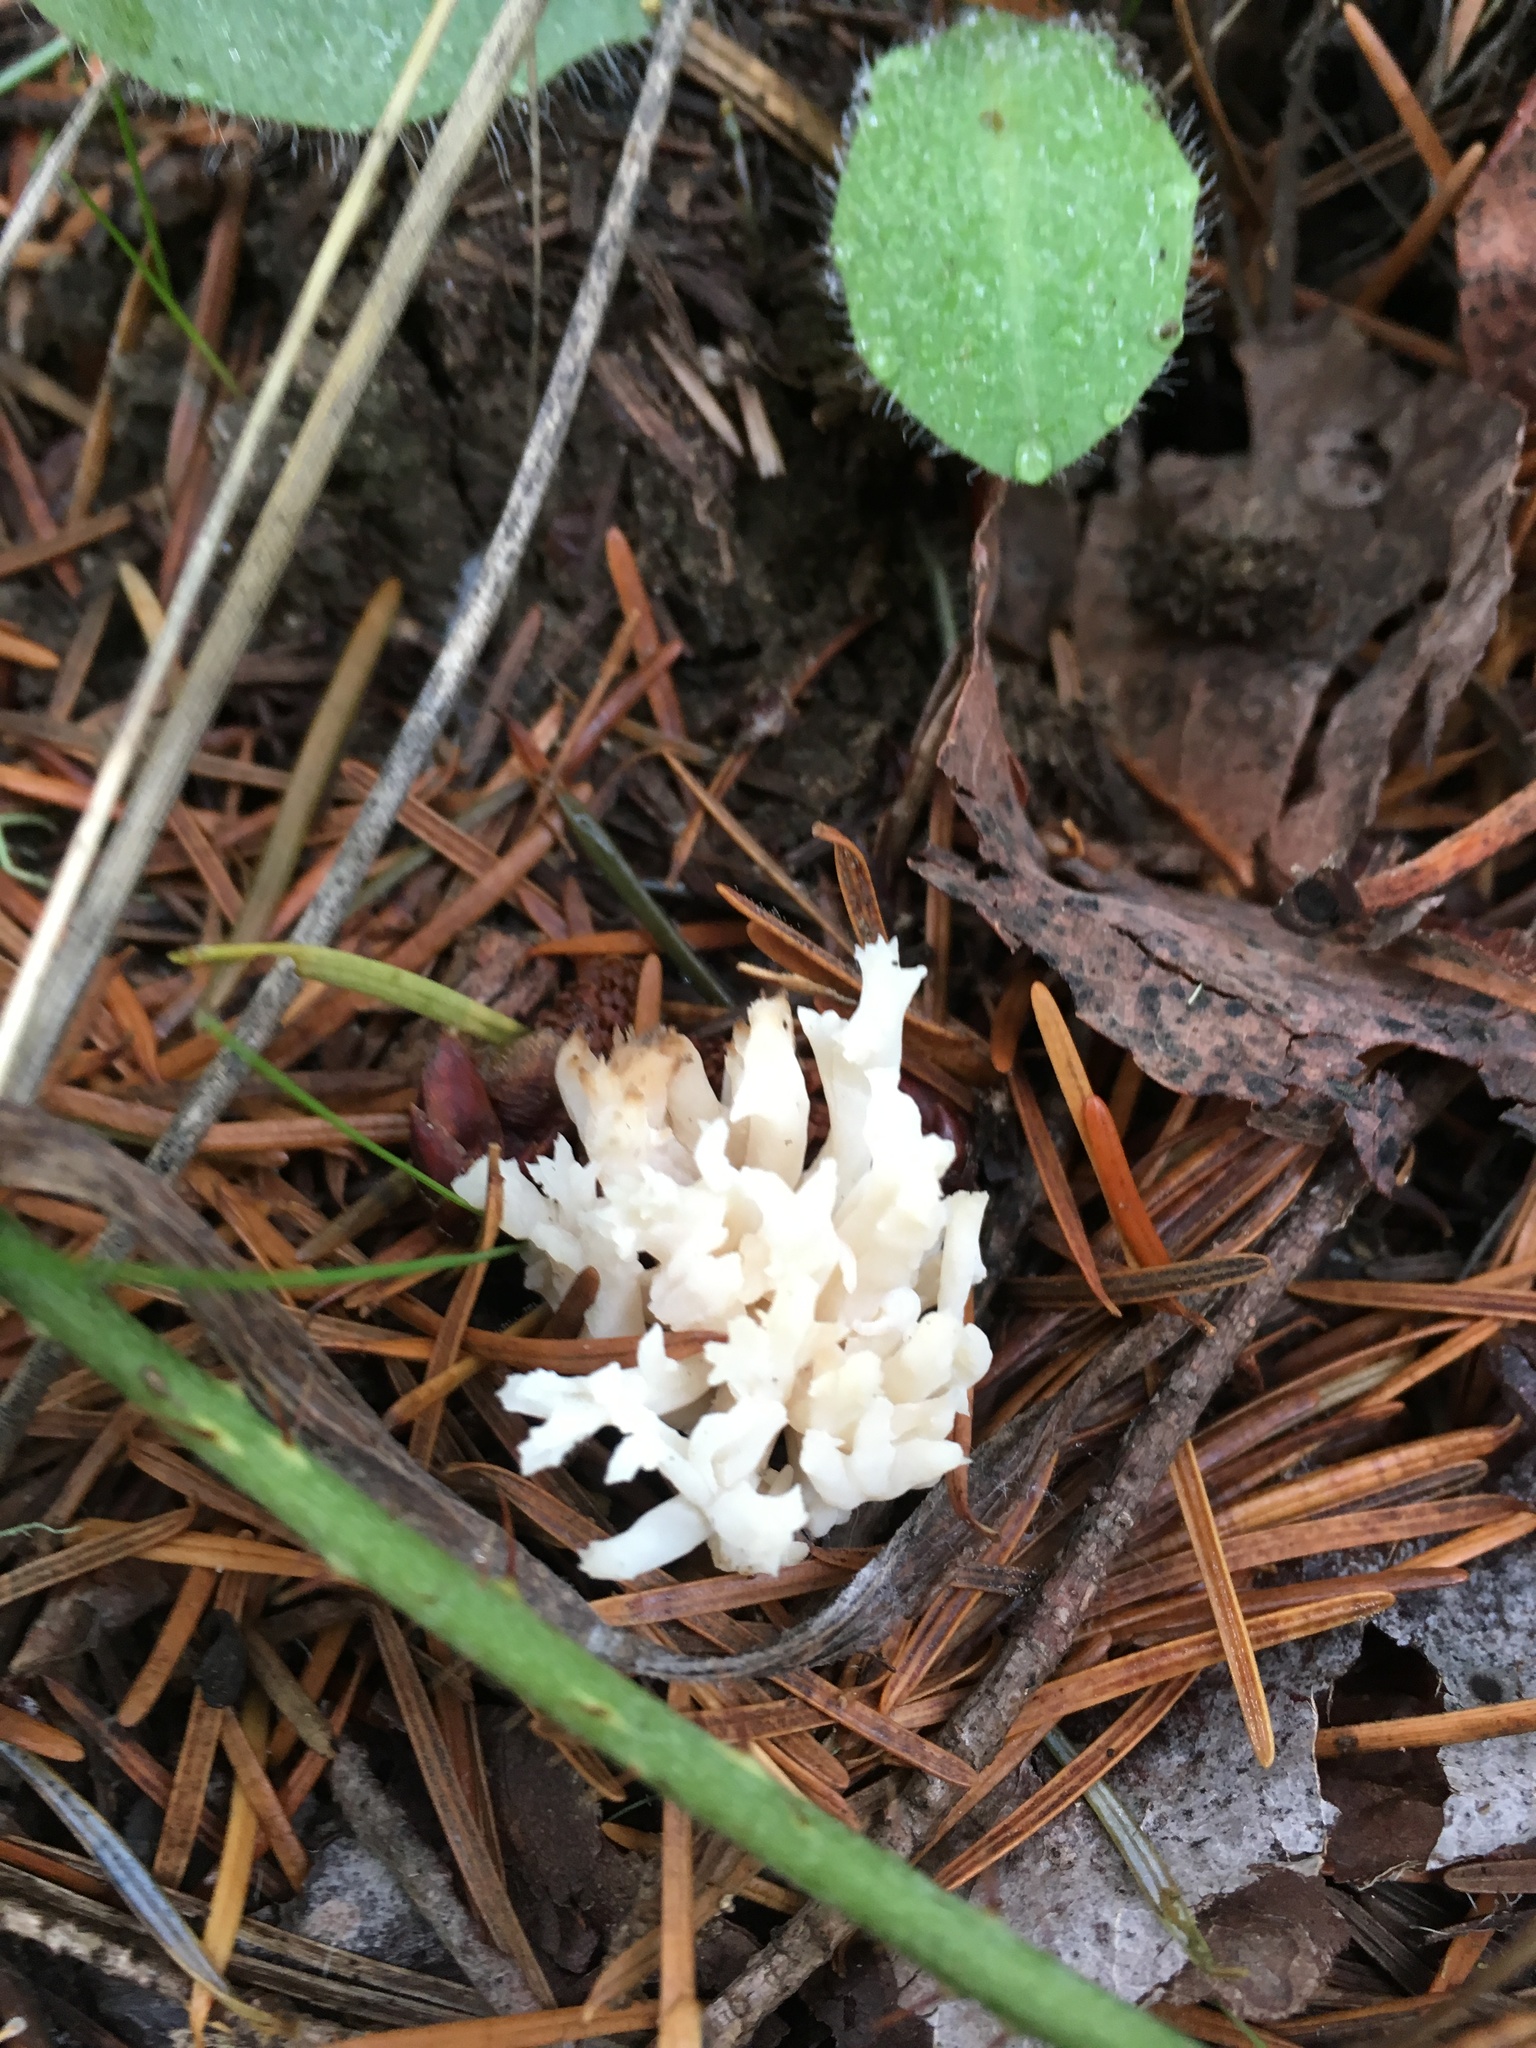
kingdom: Fungi
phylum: Basidiomycota
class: Agaricomycetes
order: Cantharellales
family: Hydnaceae
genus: Clavulina
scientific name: Clavulina coralloides
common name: Crested coral
